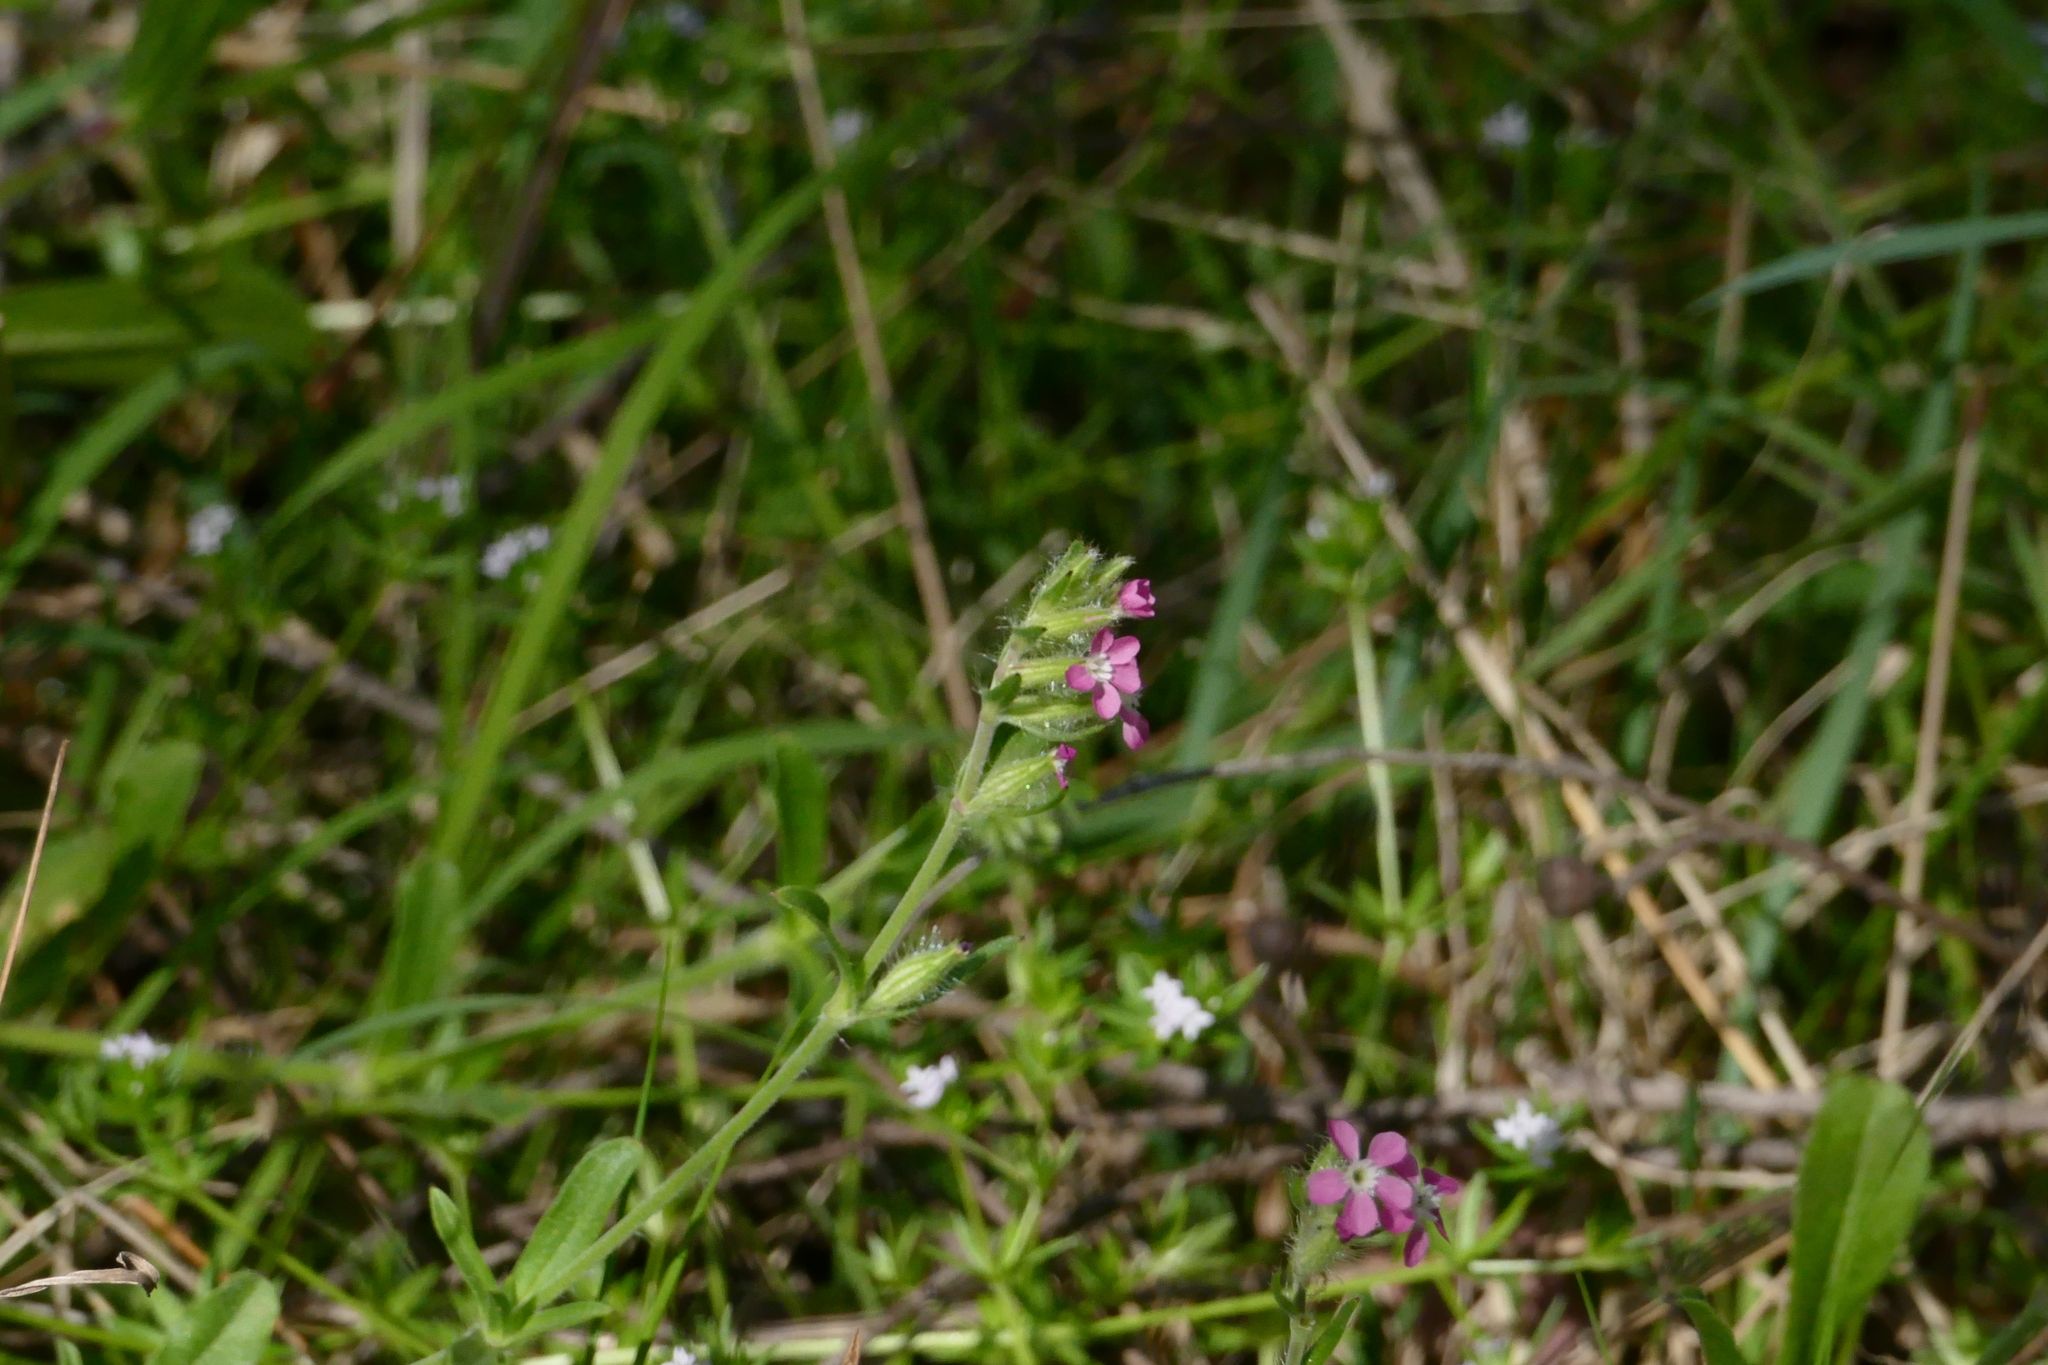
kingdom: Plantae
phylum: Tracheophyta
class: Magnoliopsida
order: Caryophyllales
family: Caryophyllaceae
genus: Silene
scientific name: Silene gallica
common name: Small-flowered catchfly
